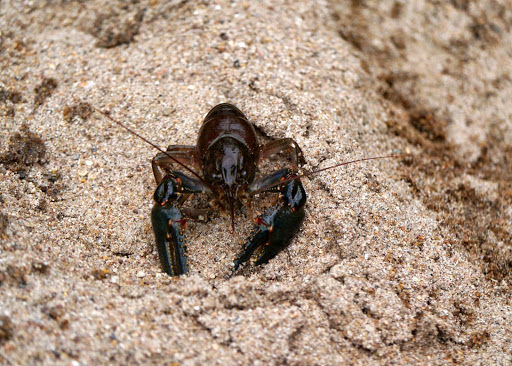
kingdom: Animalia
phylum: Arthropoda
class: Malacostraca
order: Decapoda
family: Cambaridae
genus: Faxonius
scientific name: Faxonius virilis
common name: Virile crayfish
